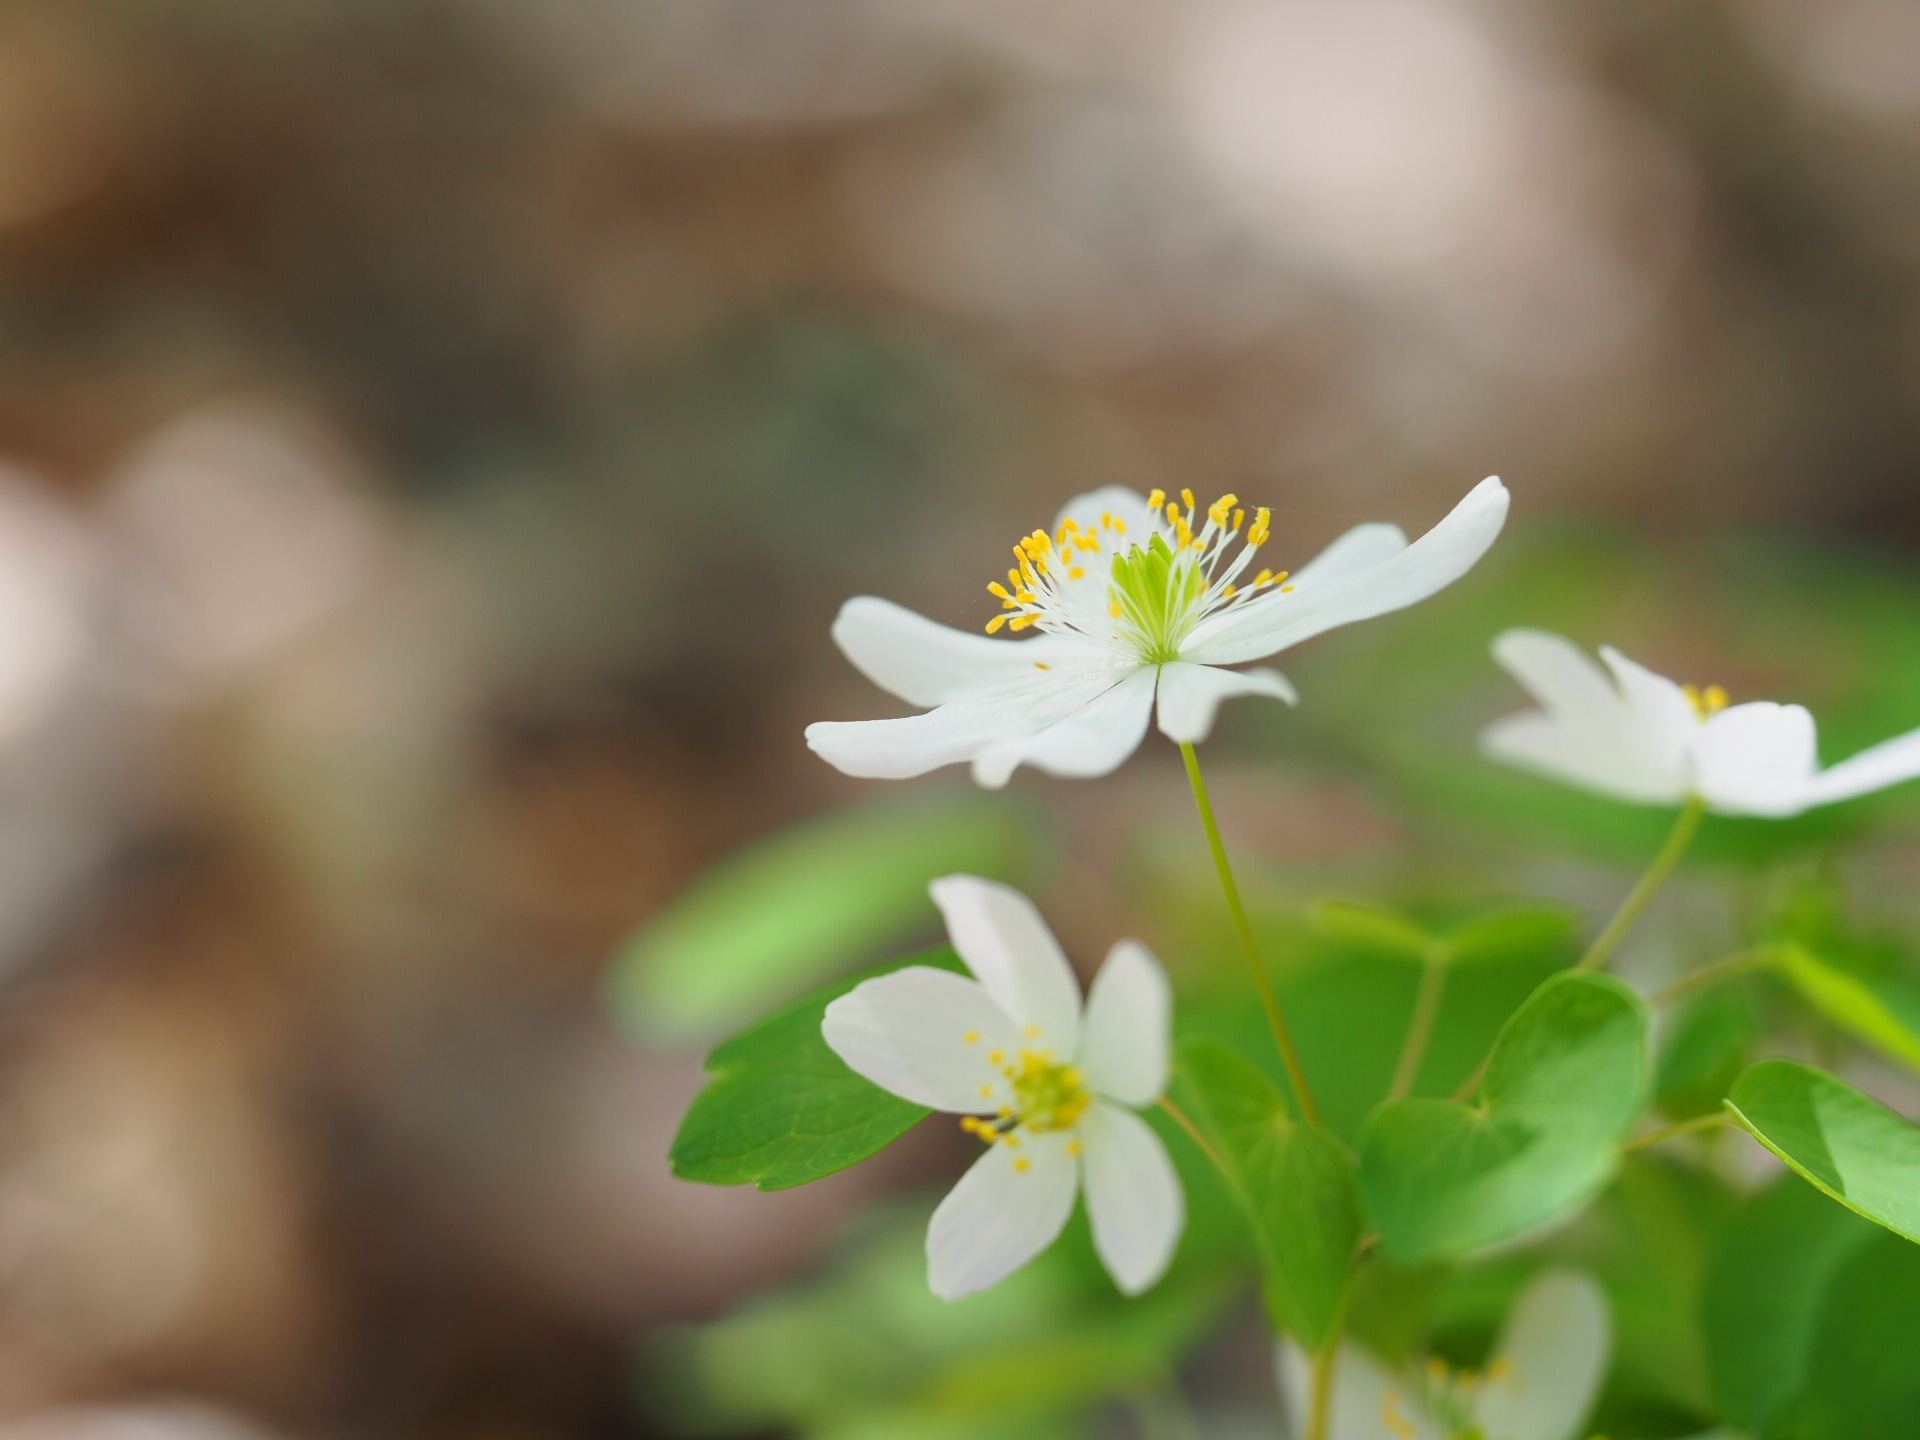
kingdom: Plantae
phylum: Tracheophyta
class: Magnoliopsida
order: Ranunculales
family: Ranunculaceae
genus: Thalictrum
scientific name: Thalictrum thalictroides
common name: Rue-anemone
